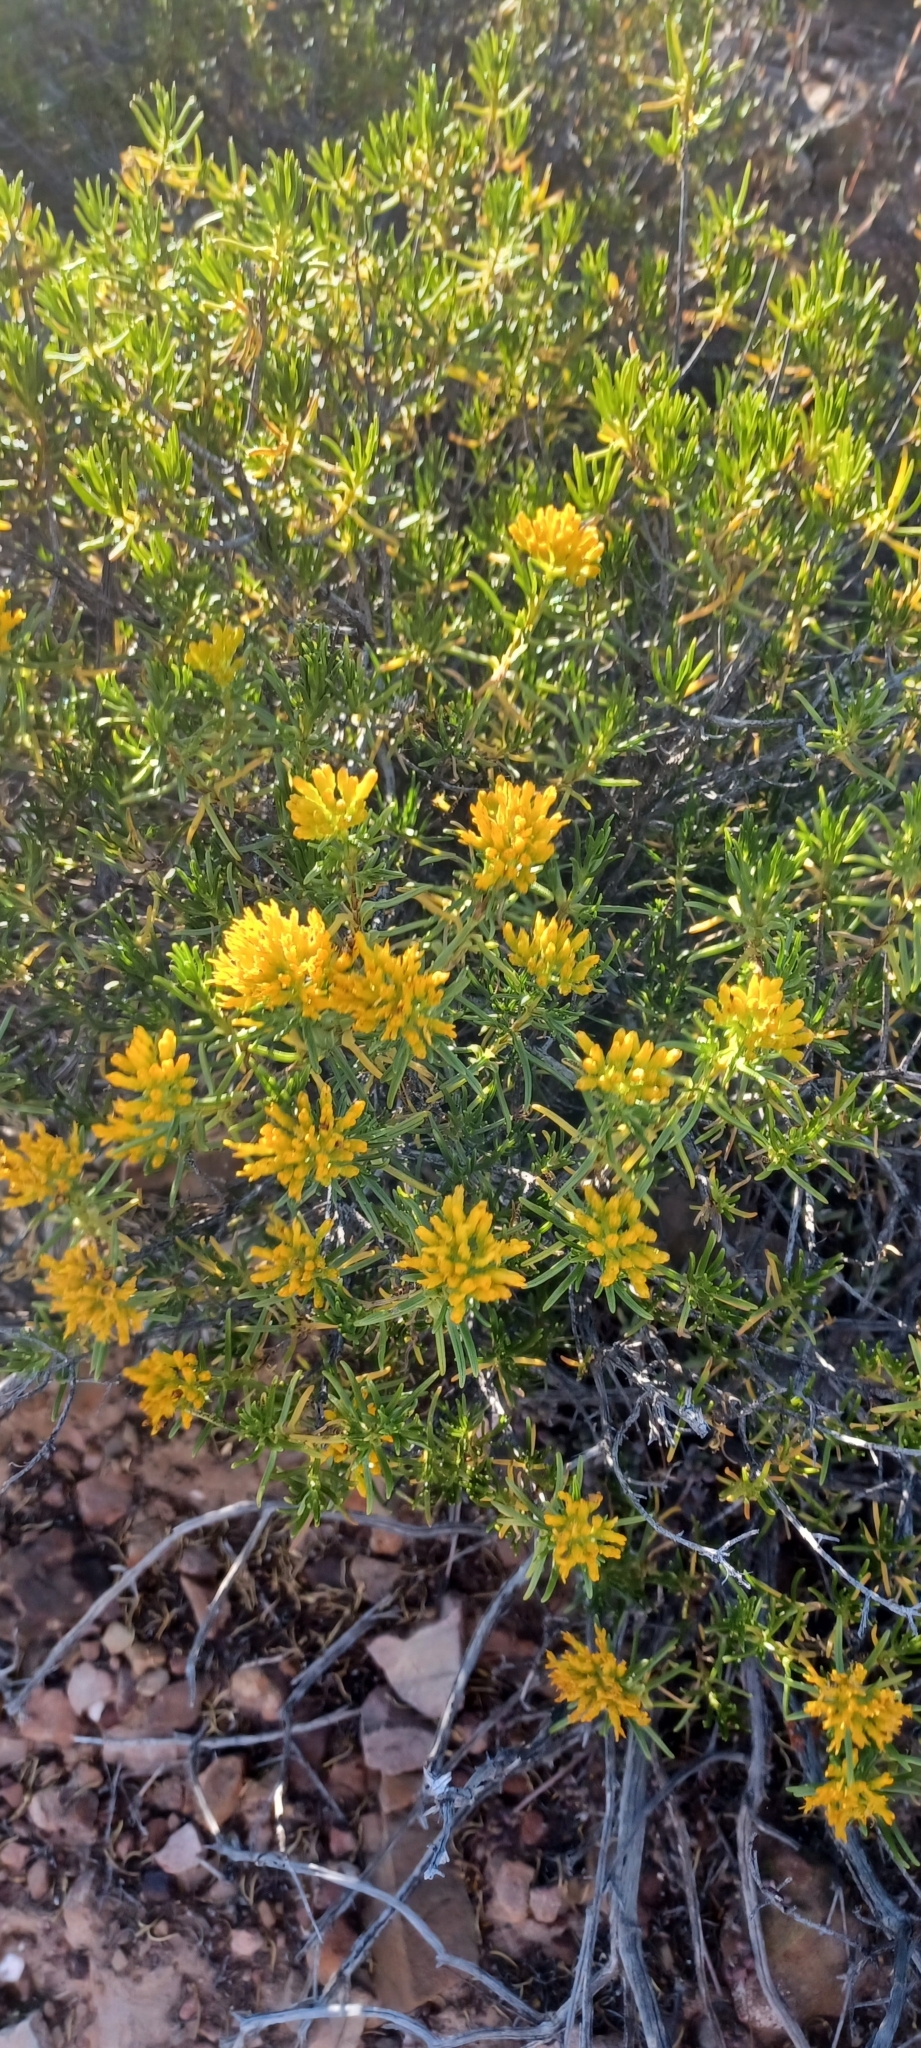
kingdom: Plantae
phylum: Tracheophyta
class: Magnoliopsida
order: Asterales
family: Asteraceae
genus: Pteronia
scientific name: Pteronia paniculata
